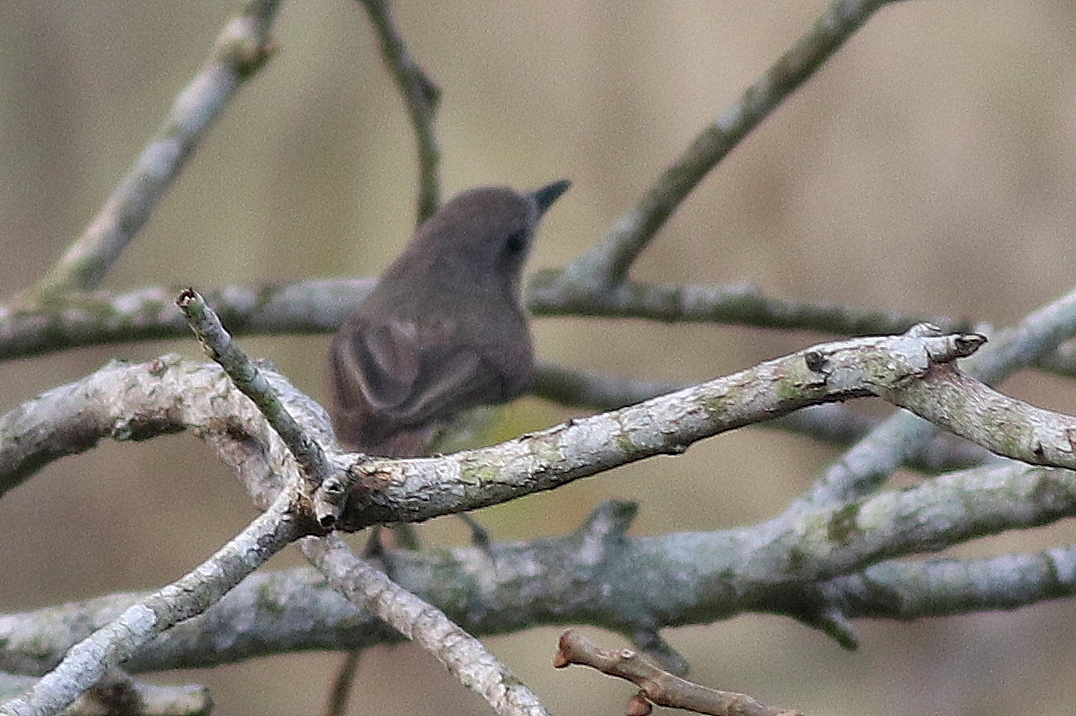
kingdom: Animalia
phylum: Chordata
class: Aves
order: Passeriformes
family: Acanthizidae
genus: Gerygone
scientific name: Gerygone sulphurea
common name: Golden-bellied gerygone
